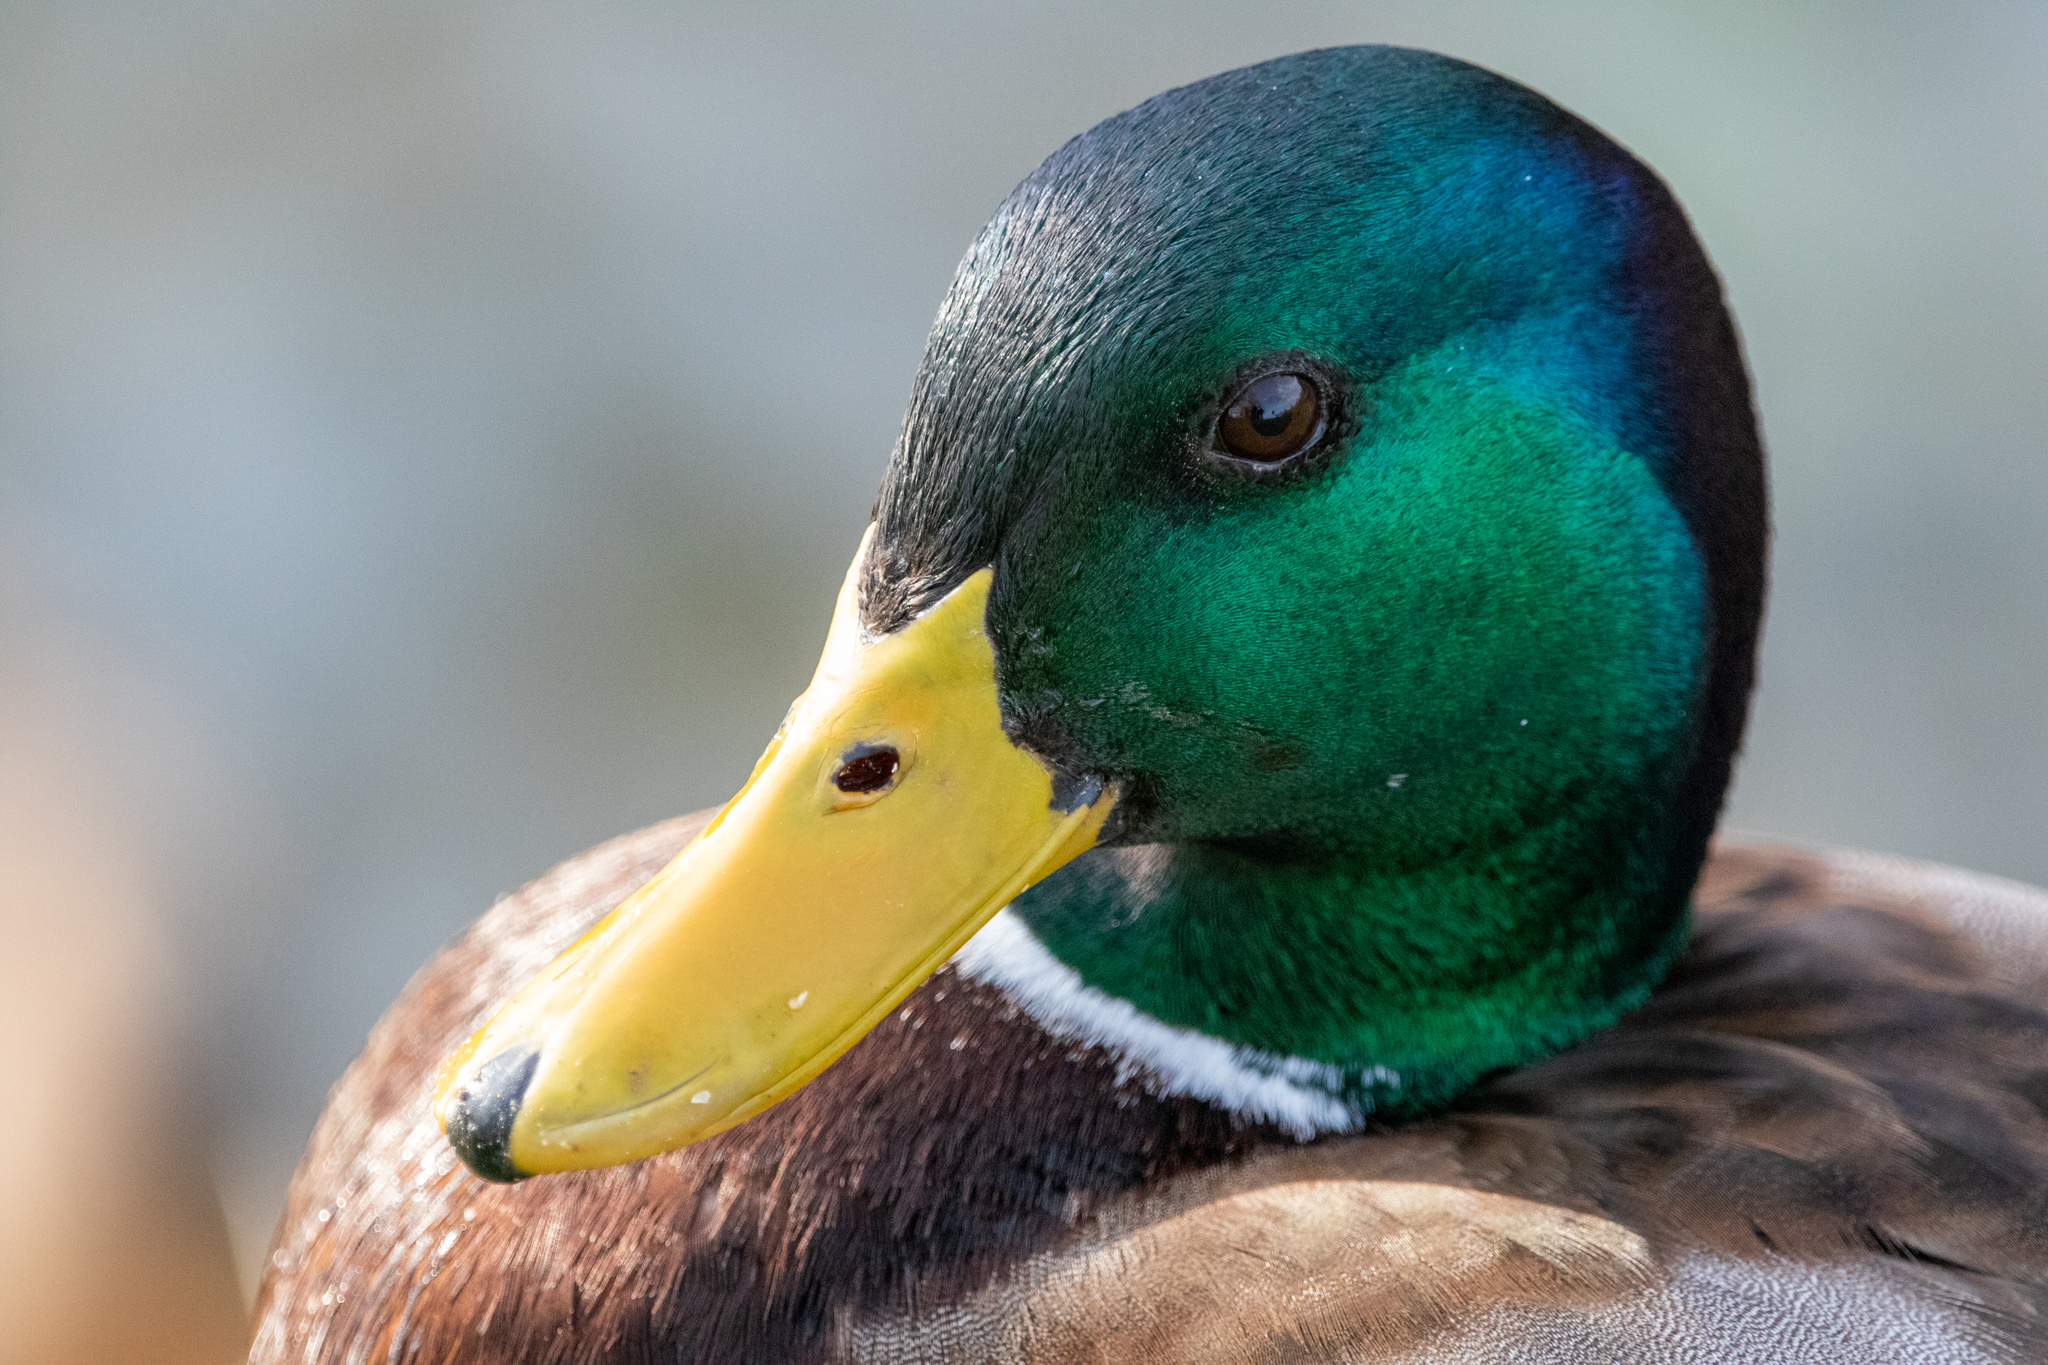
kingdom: Animalia
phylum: Chordata
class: Aves
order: Anseriformes
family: Anatidae
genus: Anas
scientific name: Anas platyrhynchos
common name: Mallard
